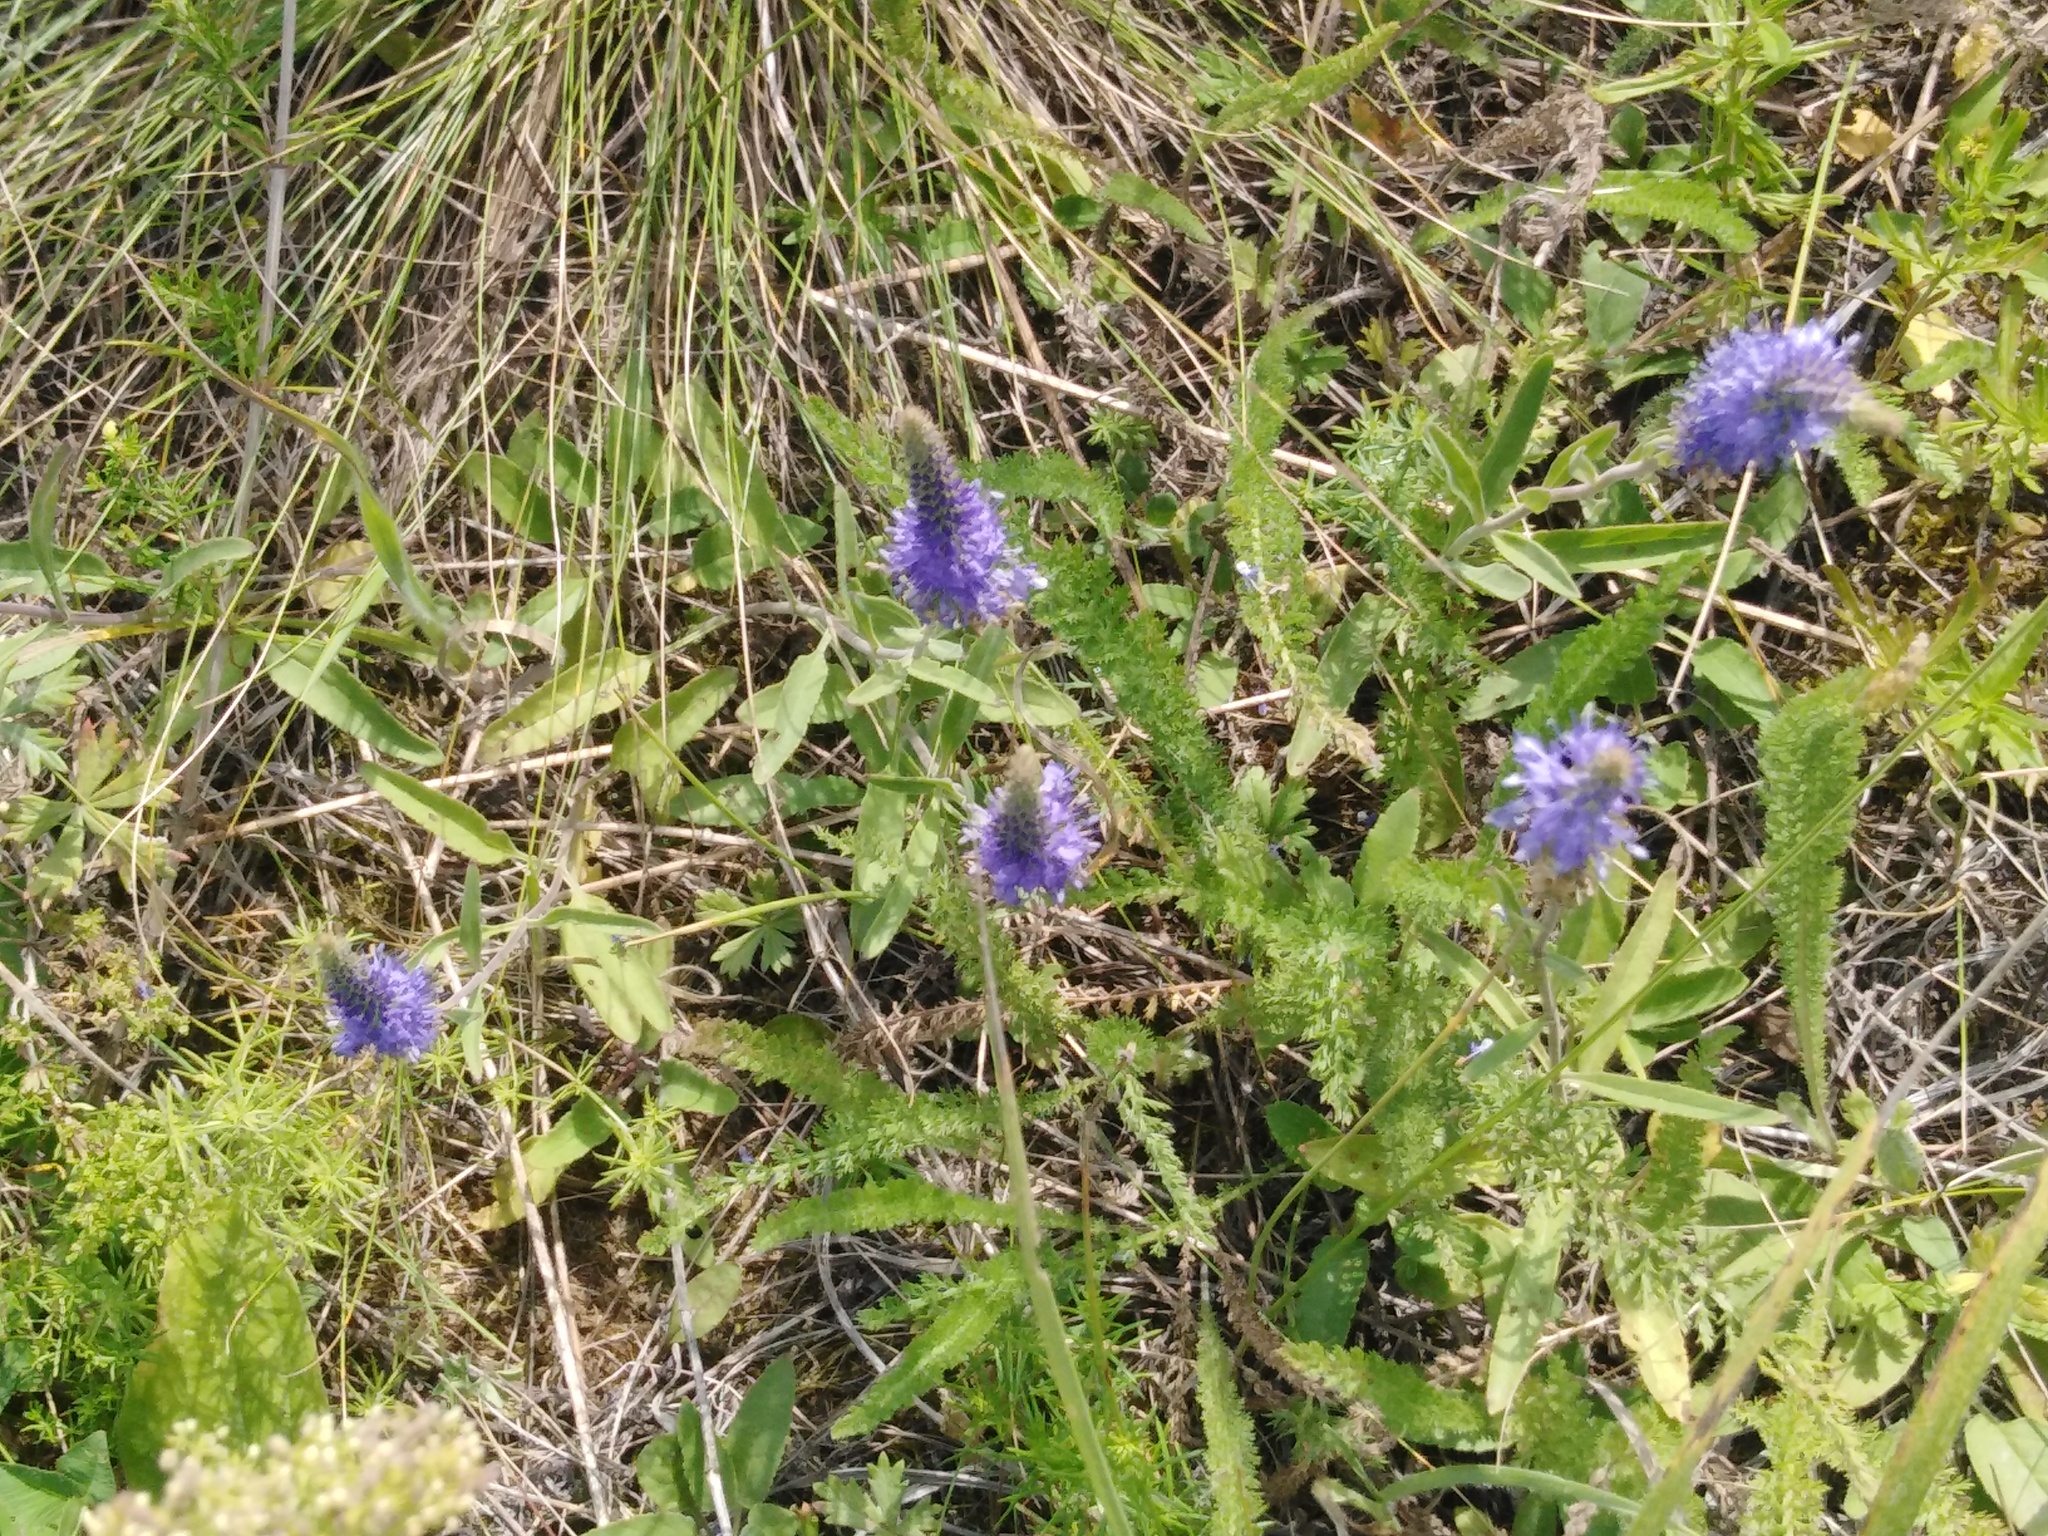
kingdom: Plantae
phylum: Tracheophyta
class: Magnoliopsida
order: Lamiales
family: Plantaginaceae
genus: Veronica
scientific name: Veronica spicata
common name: Spiked speedwell
